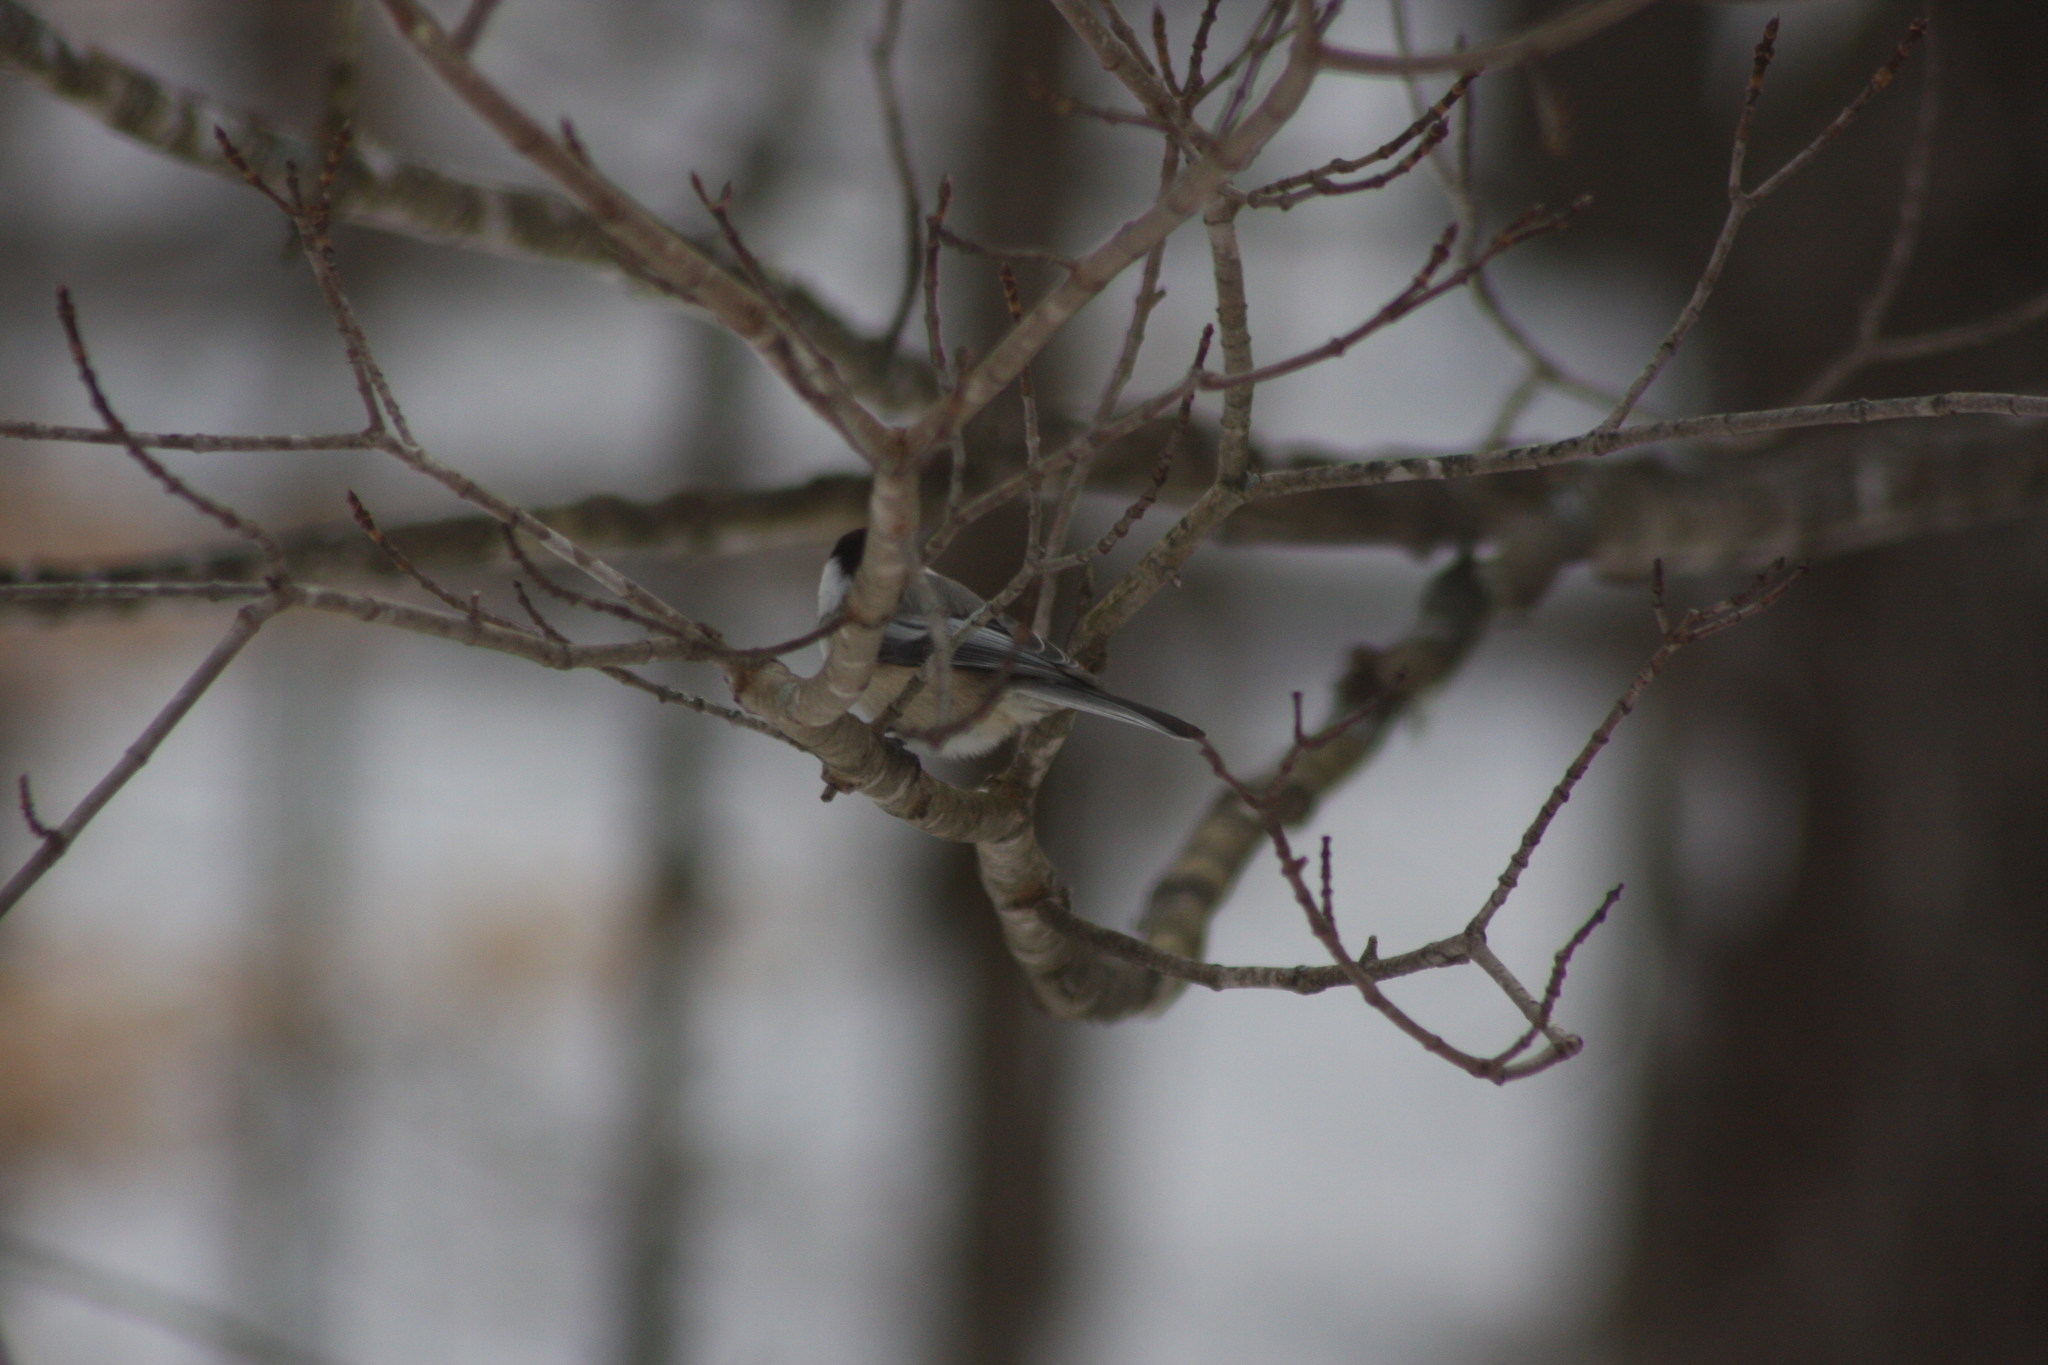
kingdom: Animalia
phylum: Chordata
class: Aves
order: Passeriformes
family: Paridae
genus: Poecile
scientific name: Poecile atricapillus
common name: Black-capped chickadee
